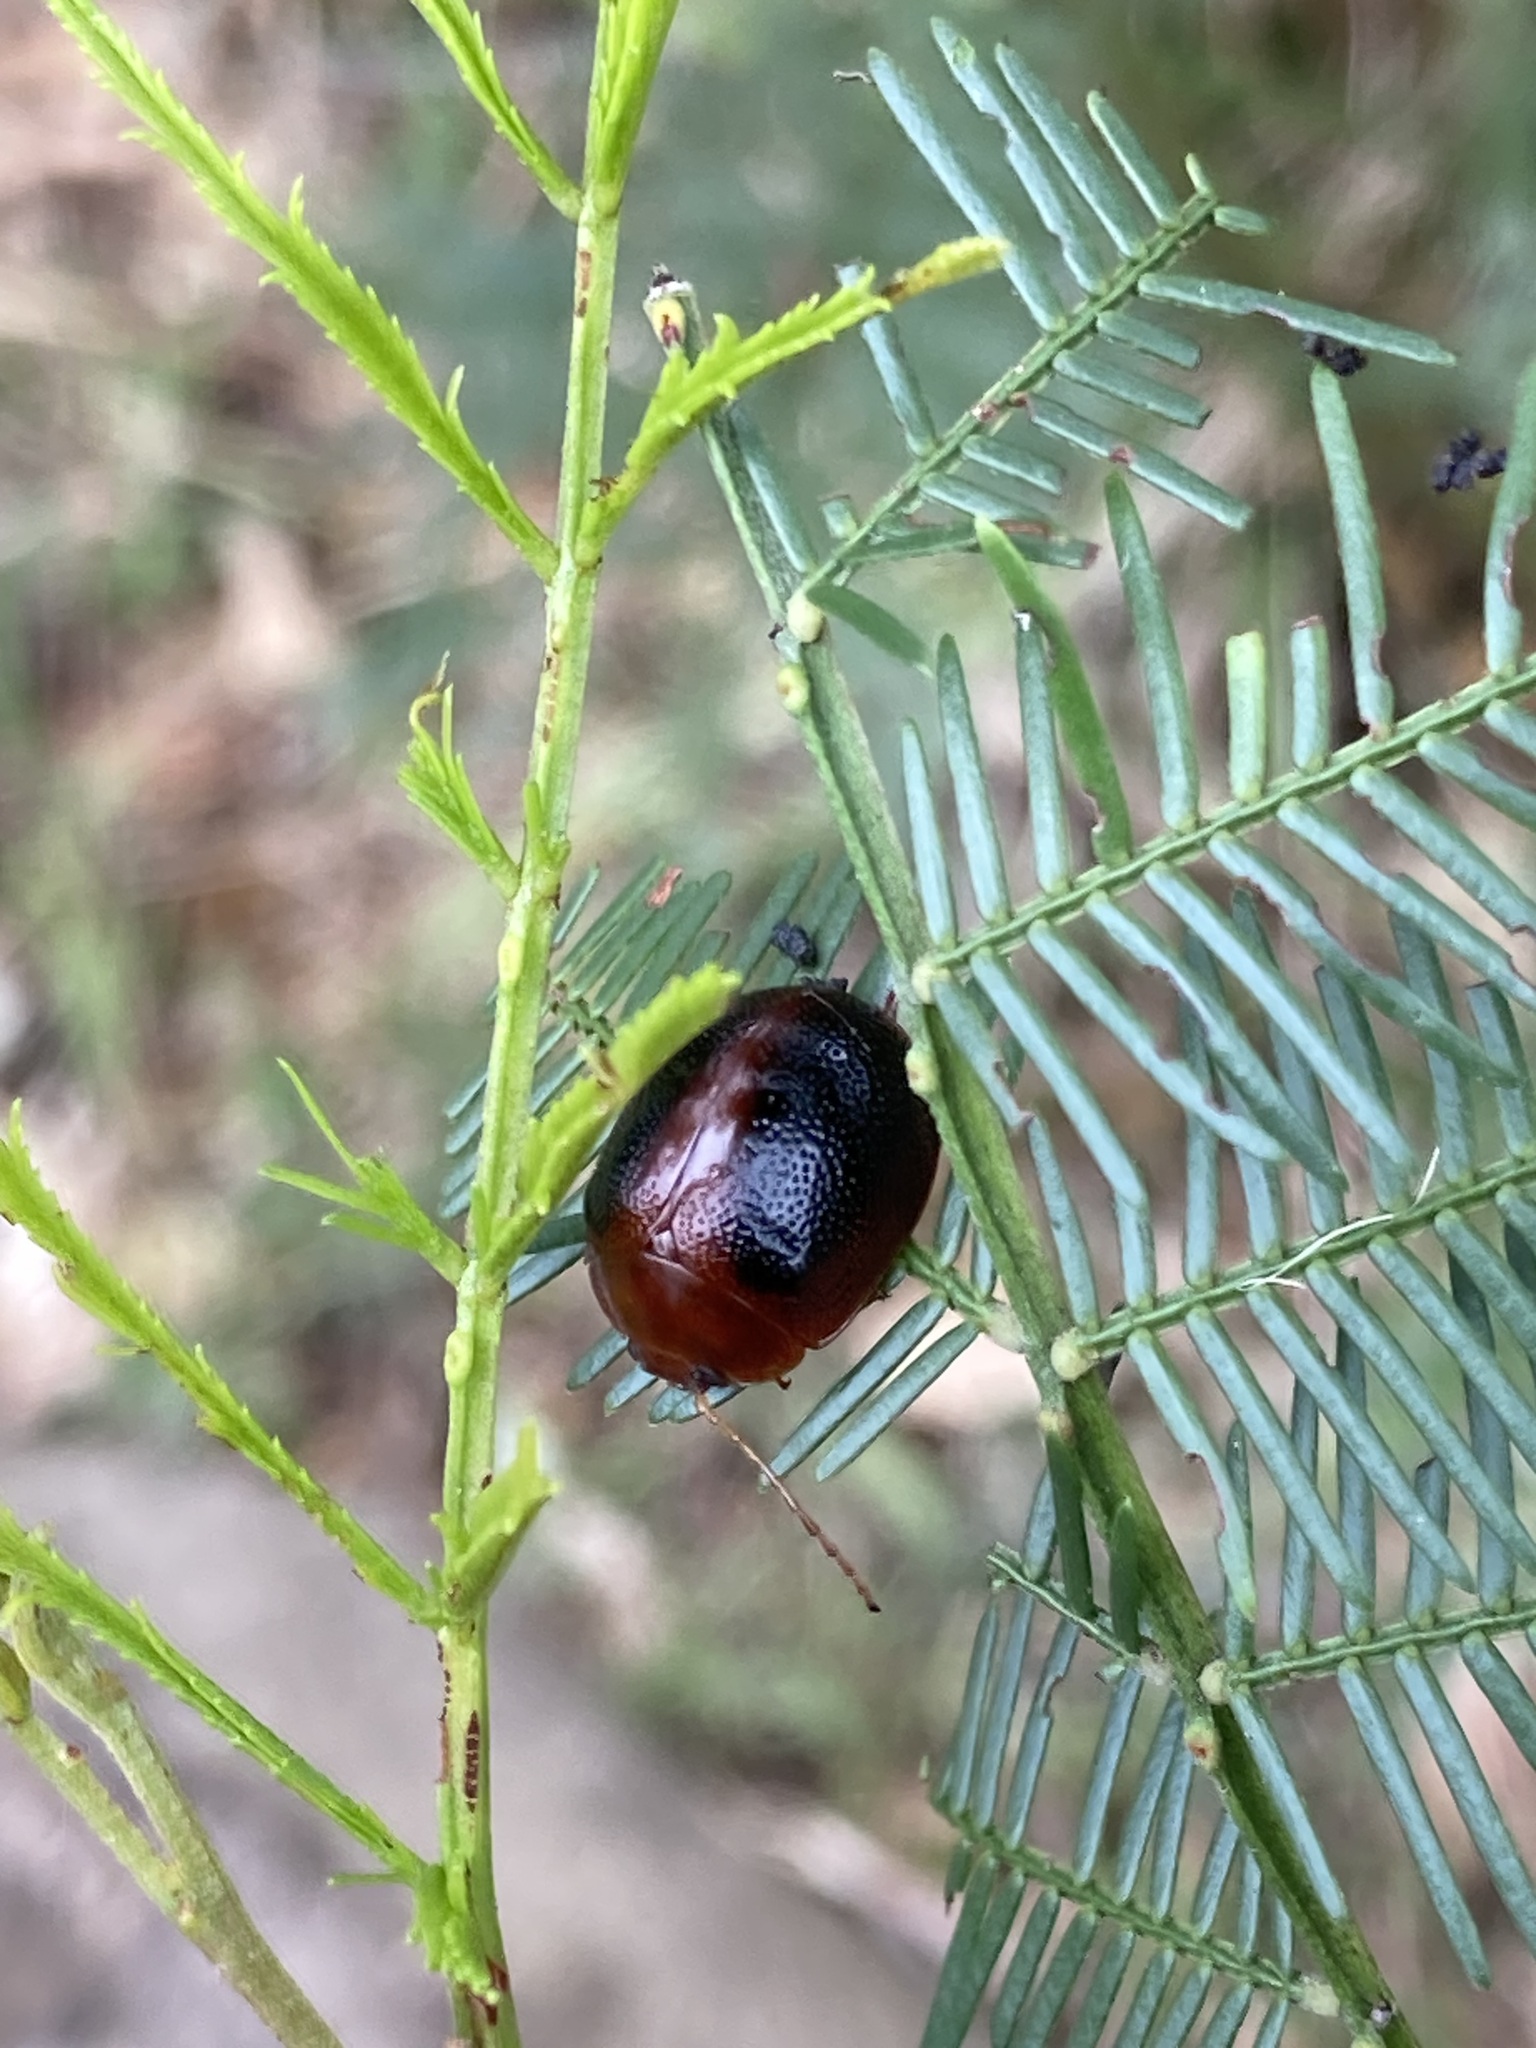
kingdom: Animalia
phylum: Arthropoda
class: Insecta
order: Coleoptera
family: Chrysomelidae
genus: Dicranosterna
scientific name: Dicranosterna
